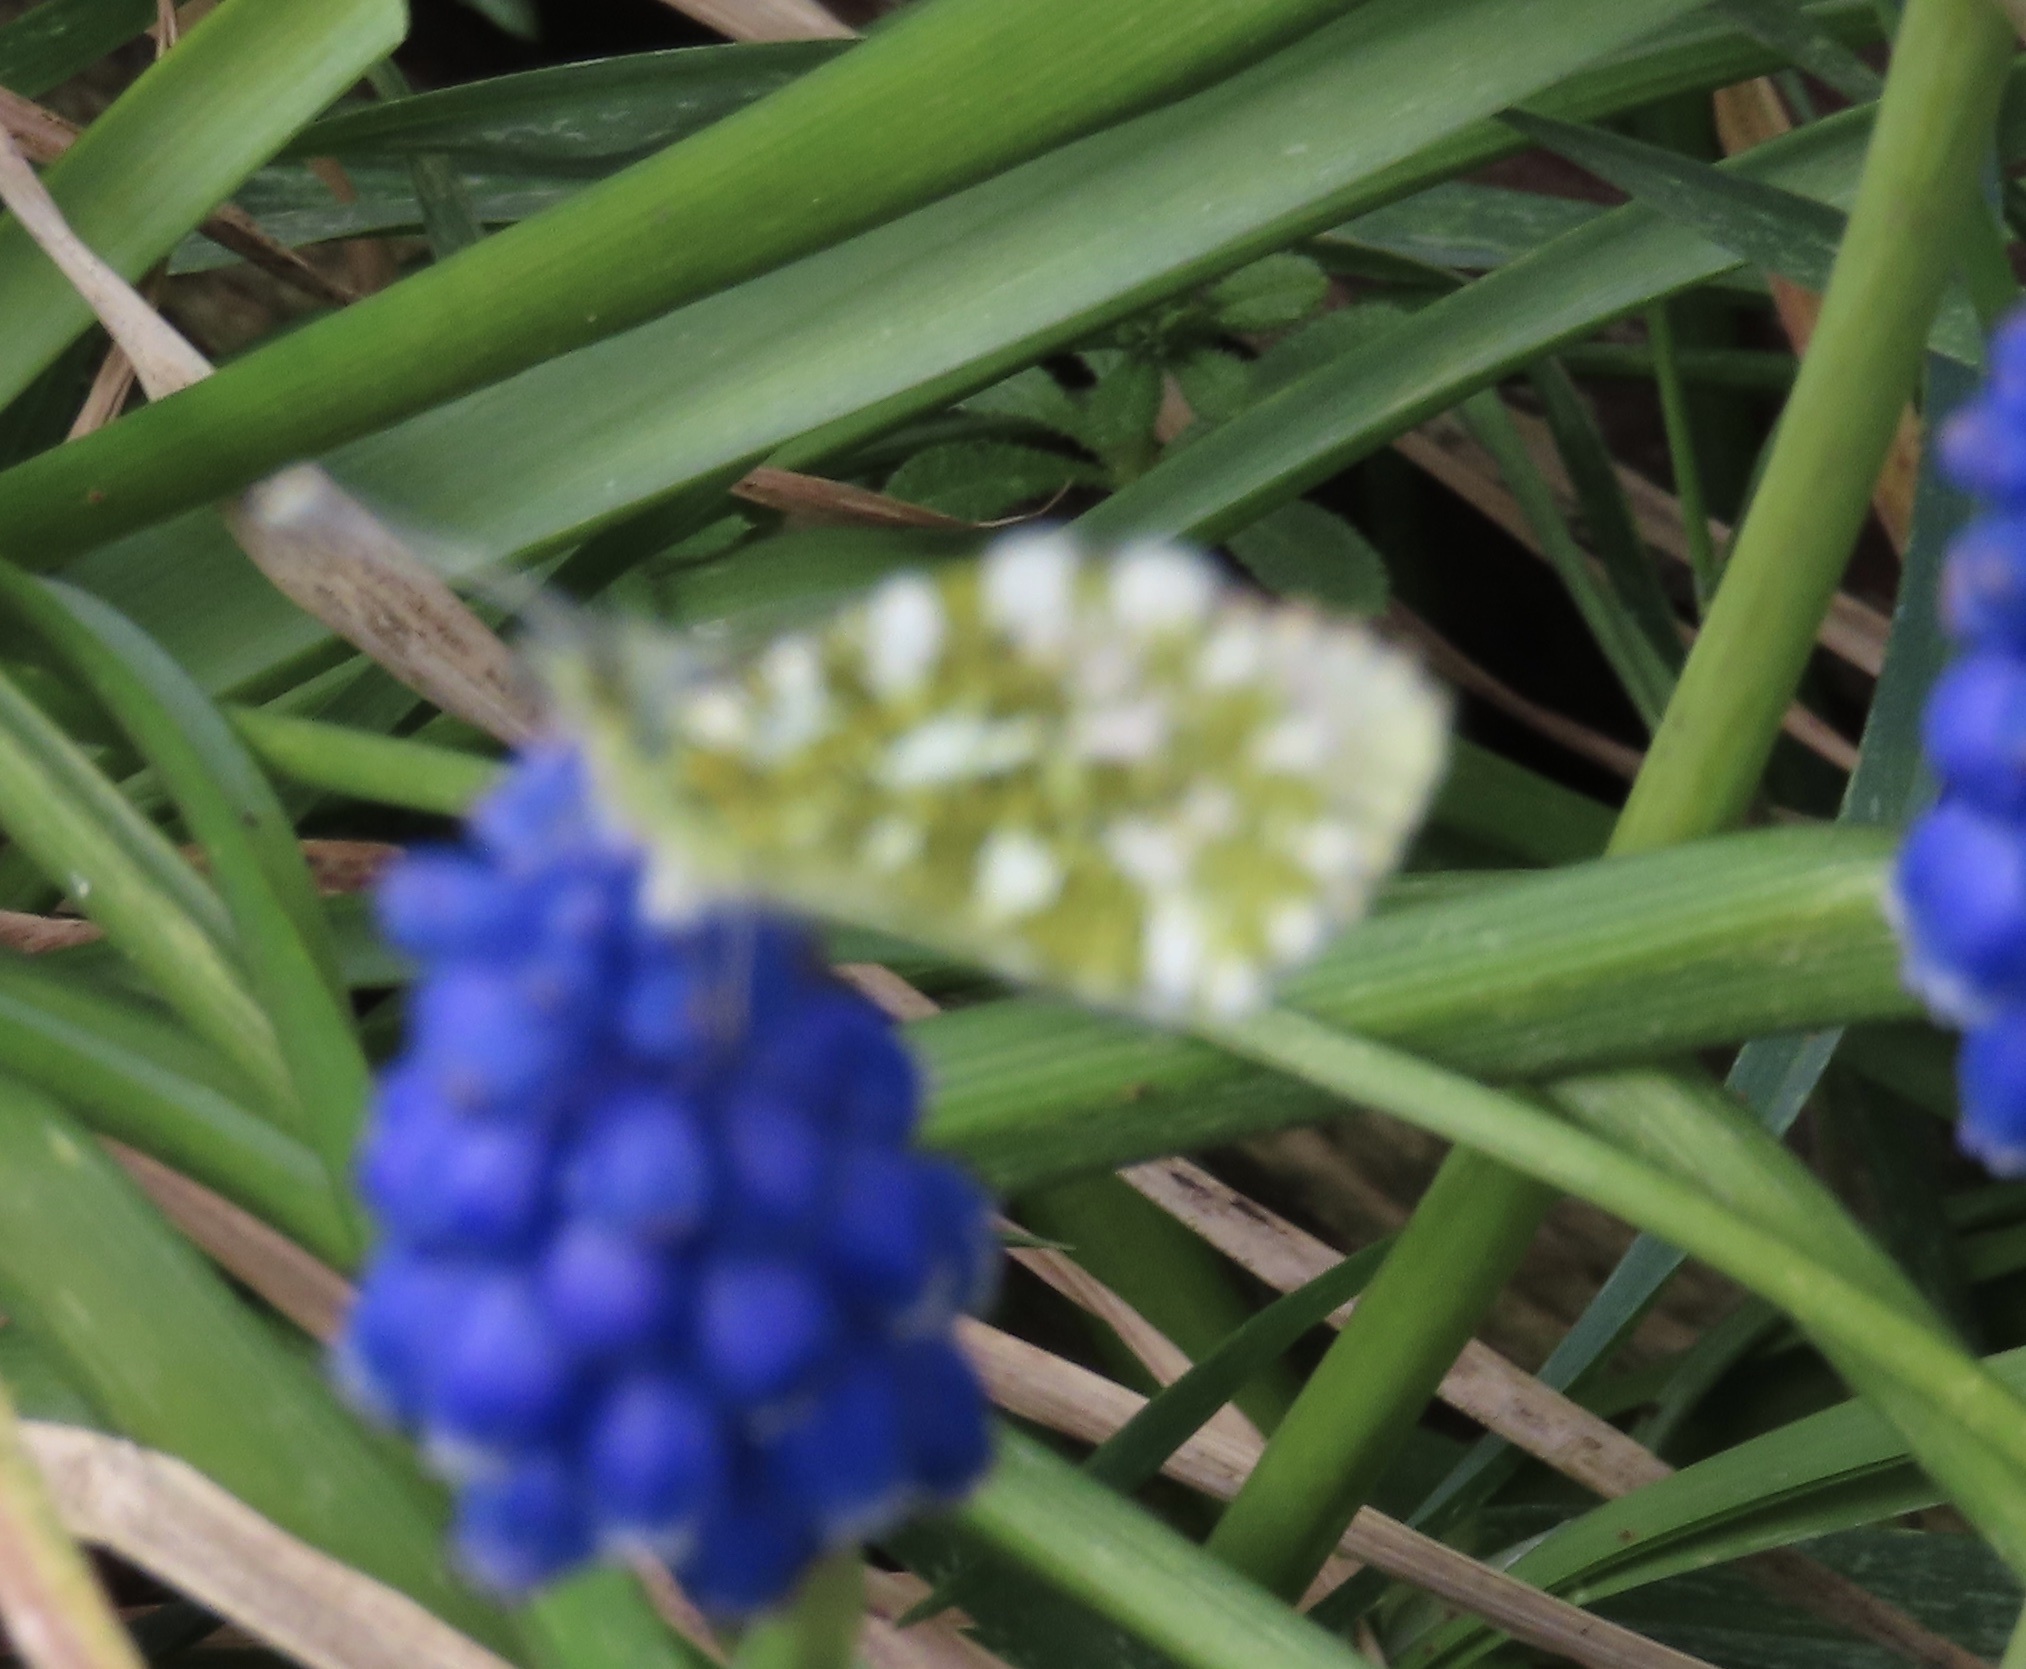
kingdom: Animalia
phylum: Arthropoda
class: Insecta
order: Lepidoptera
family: Pieridae
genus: Anthocharis
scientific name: Anthocharis cardamines
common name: Orange-tip
